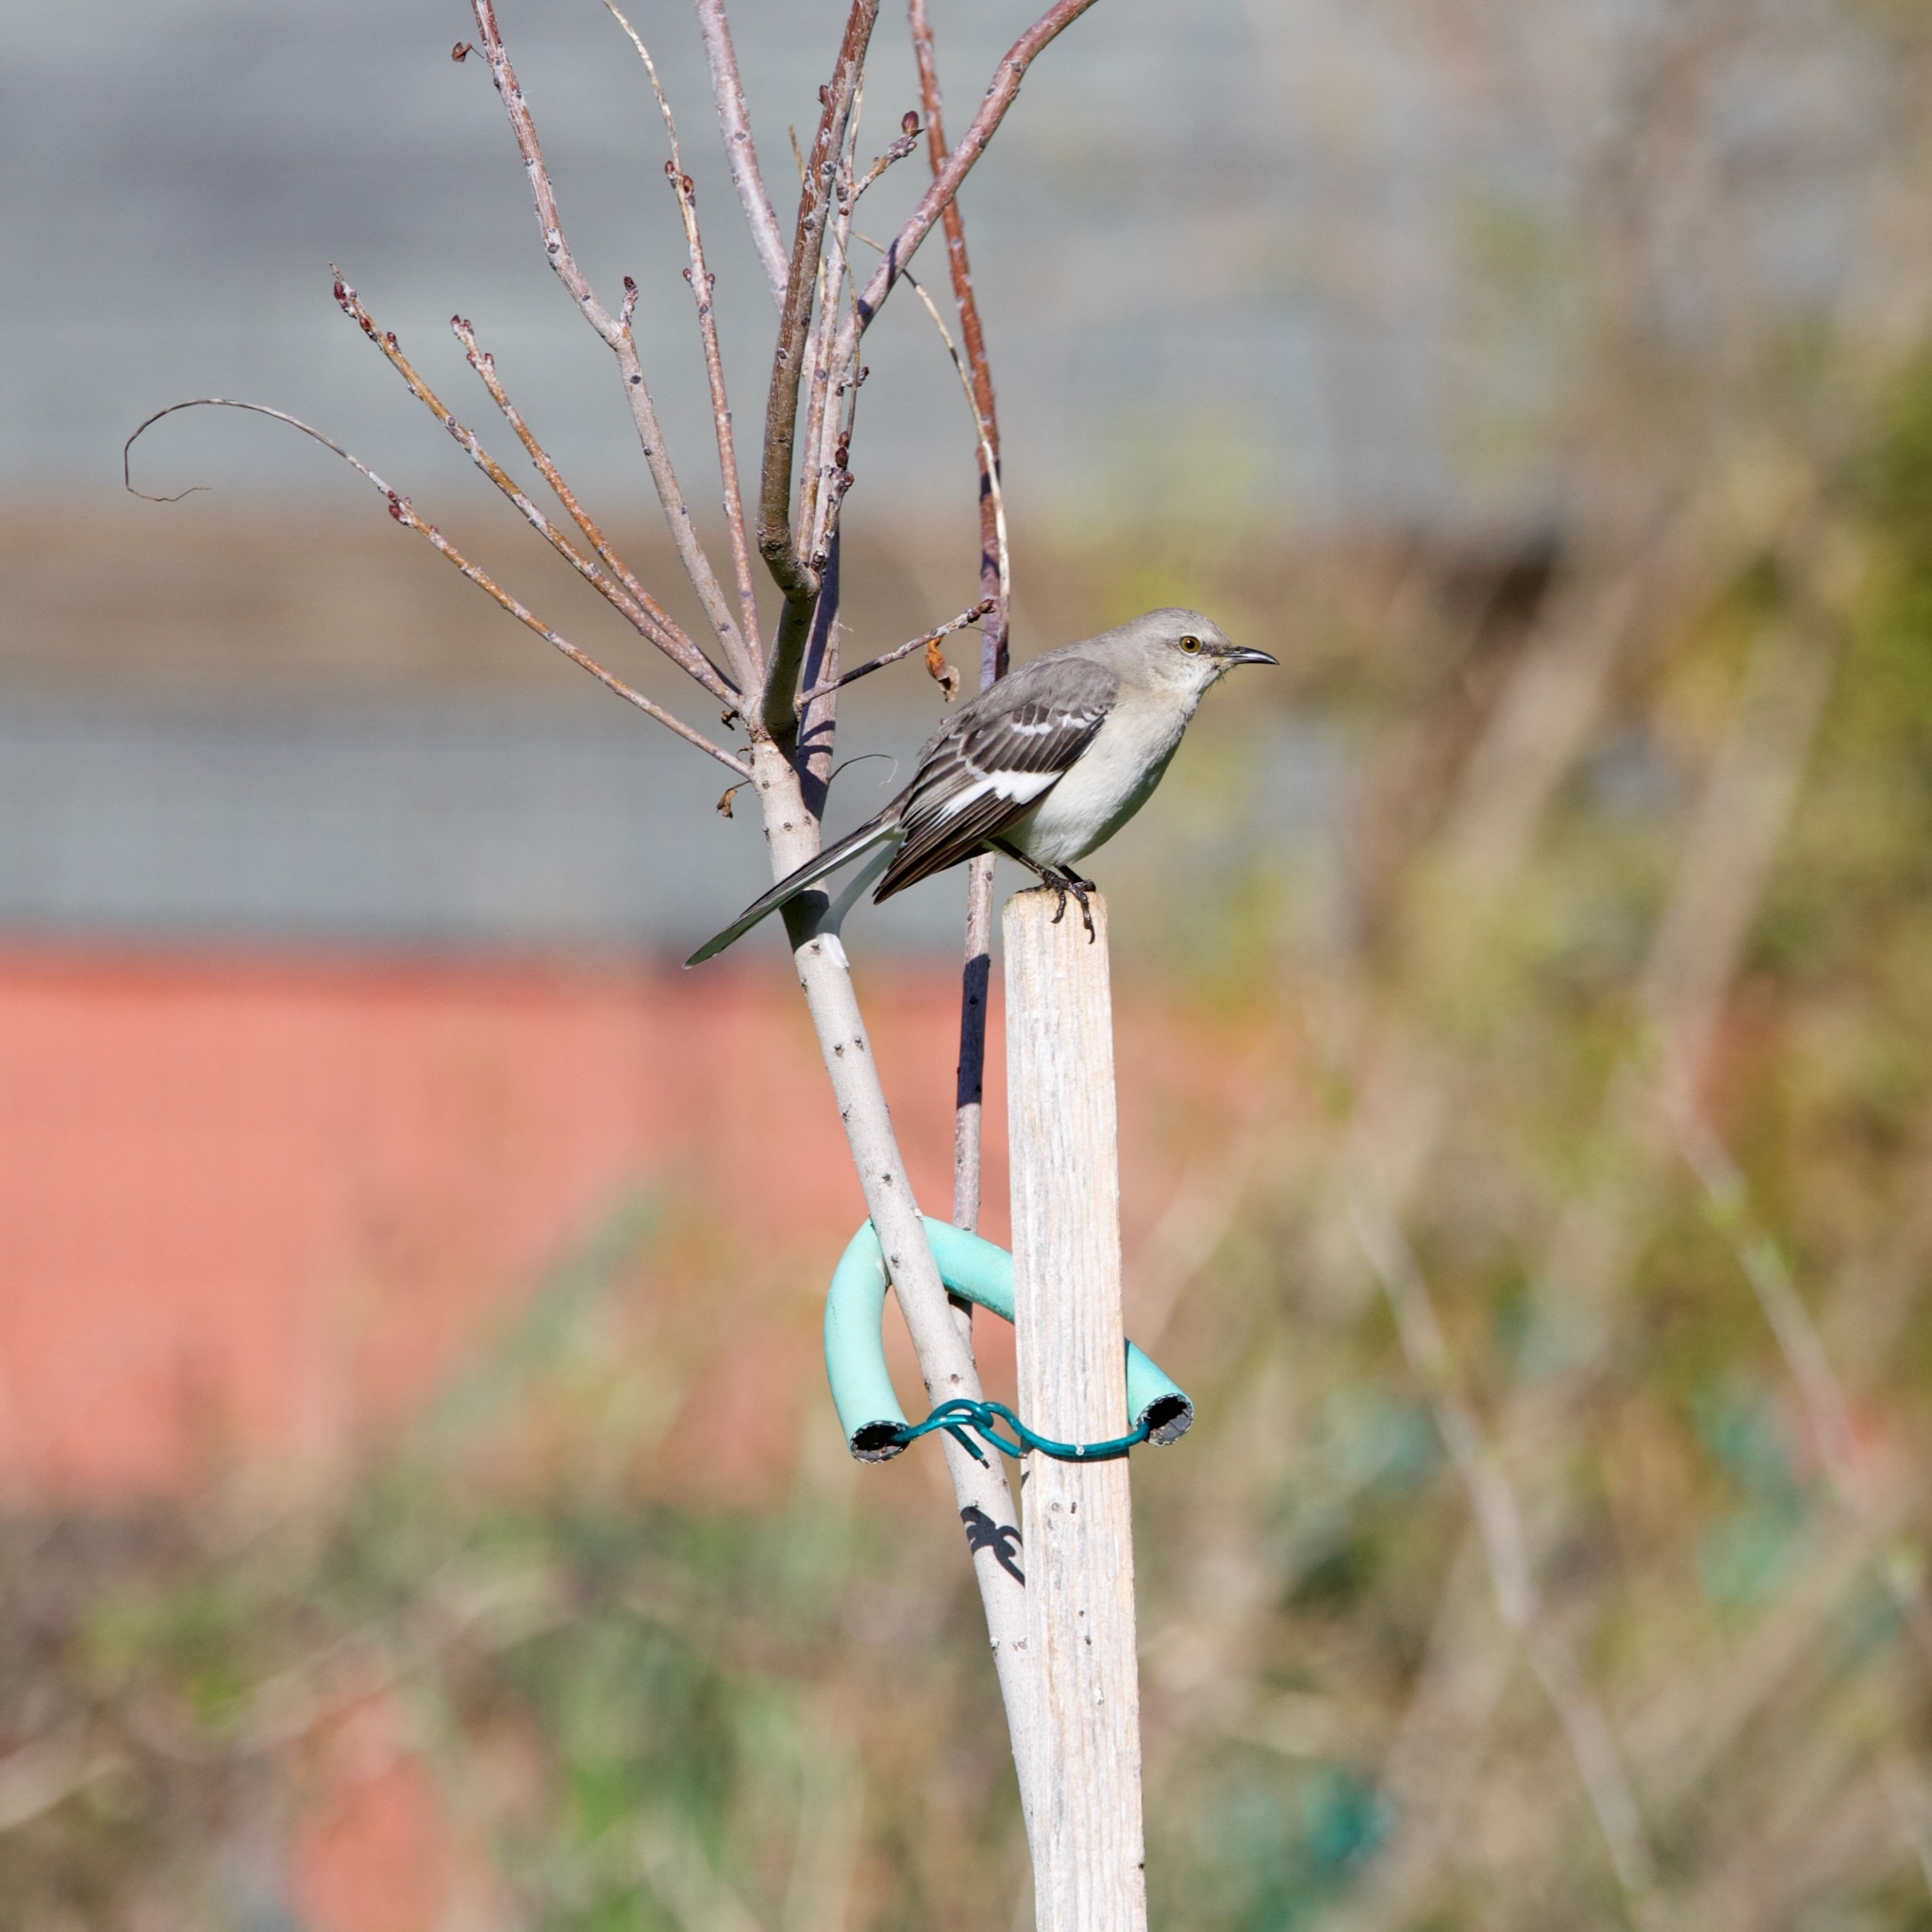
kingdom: Animalia
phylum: Chordata
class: Aves
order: Passeriformes
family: Mimidae
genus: Mimus
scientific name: Mimus polyglottos
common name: Northern mockingbird
